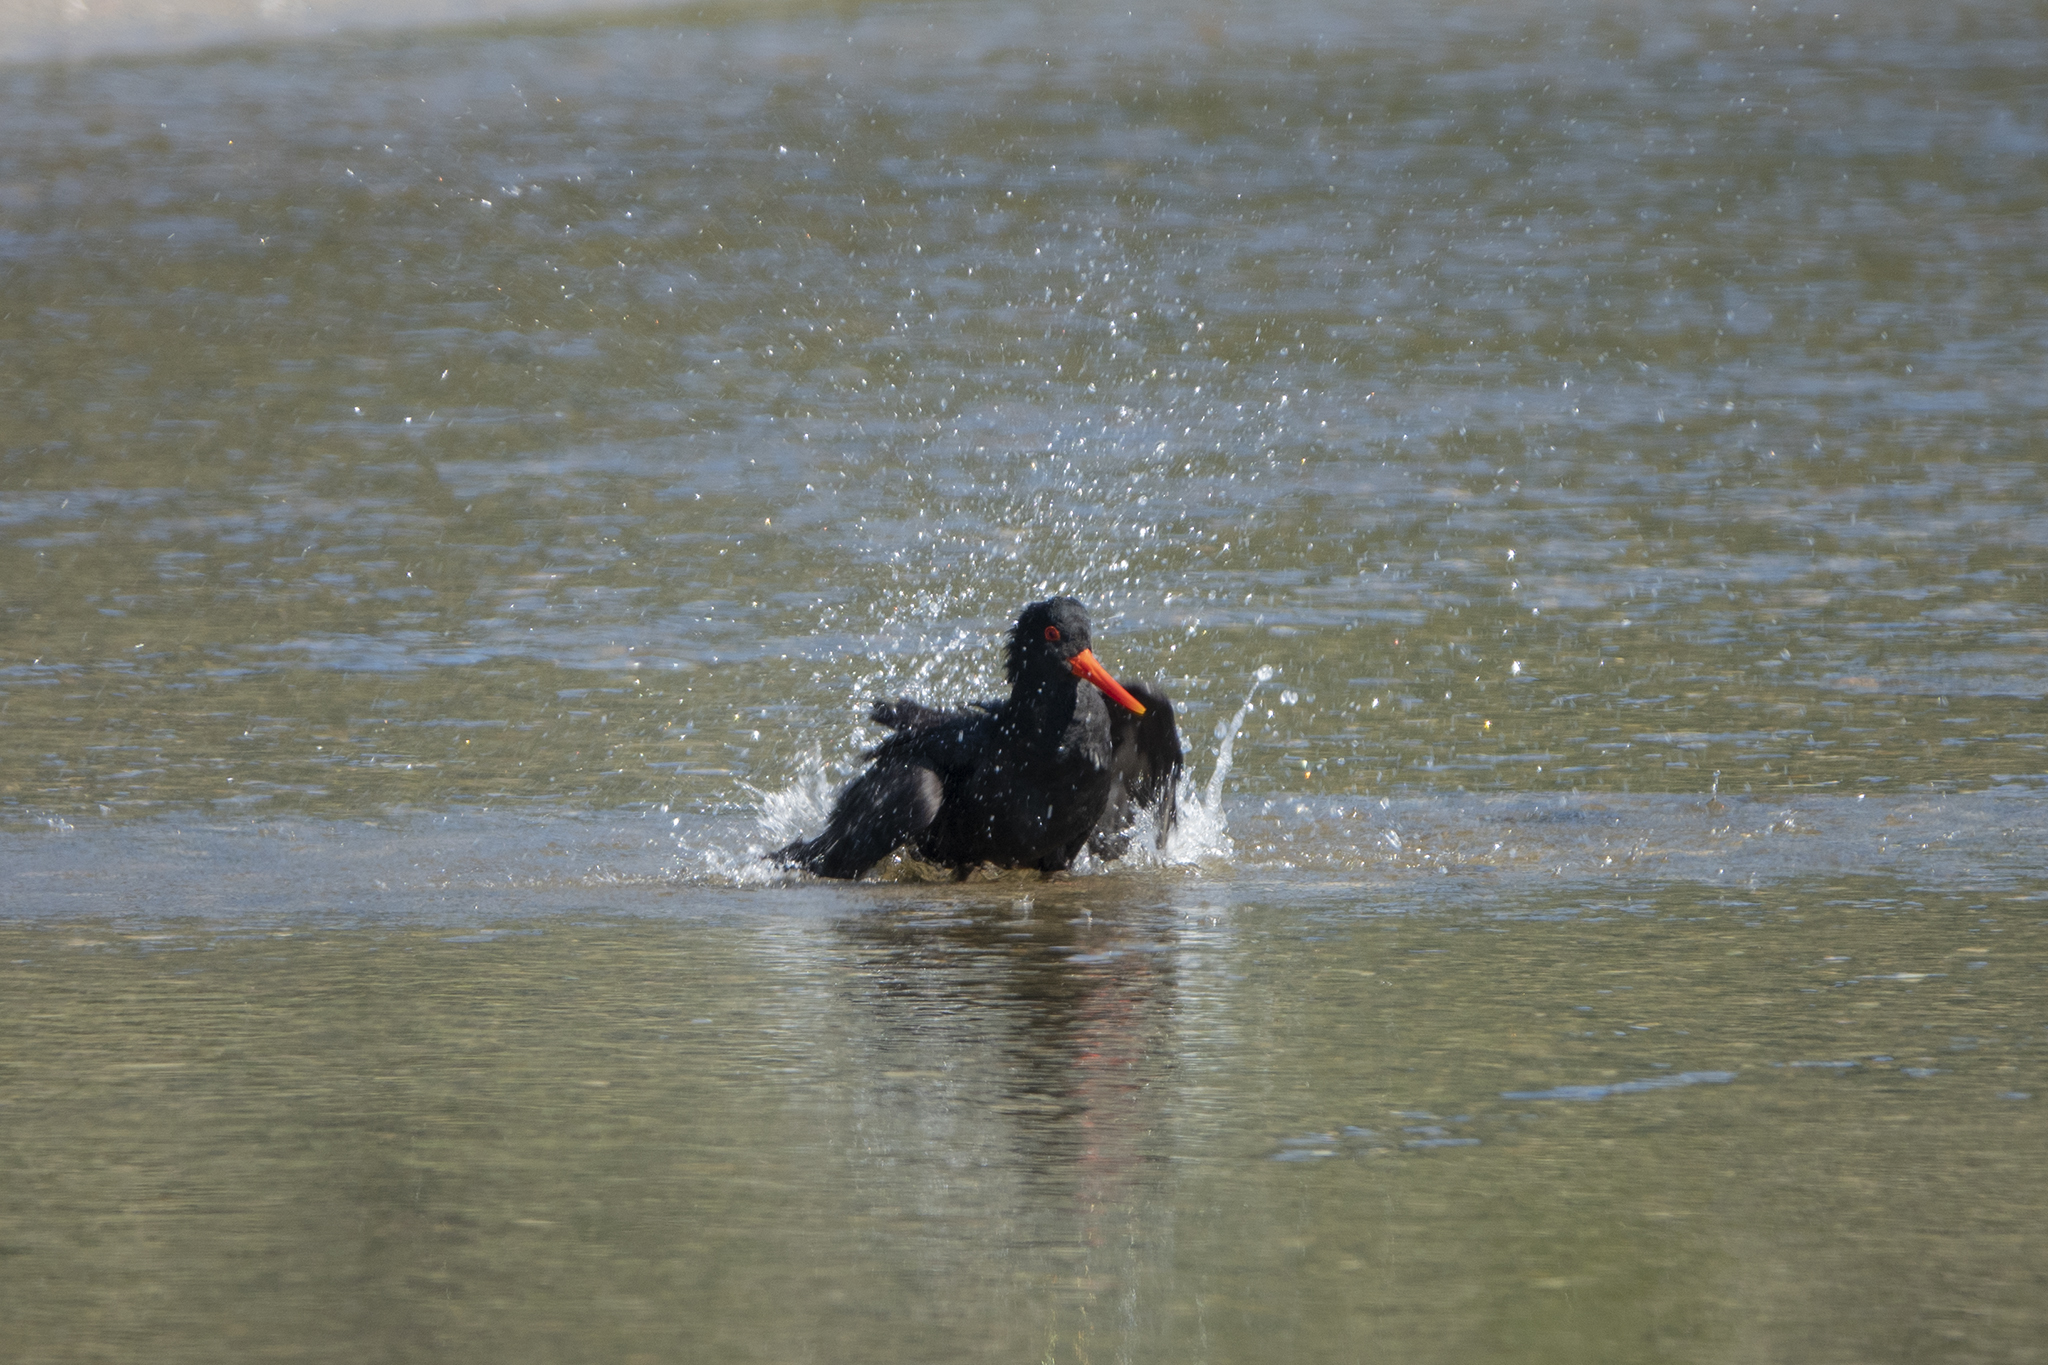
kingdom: Animalia
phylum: Chordata
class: Aves
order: Charadriiformes
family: Haematopodidae
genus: Haematopus
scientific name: Haematopus unicolor
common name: Variable oystercatcher
